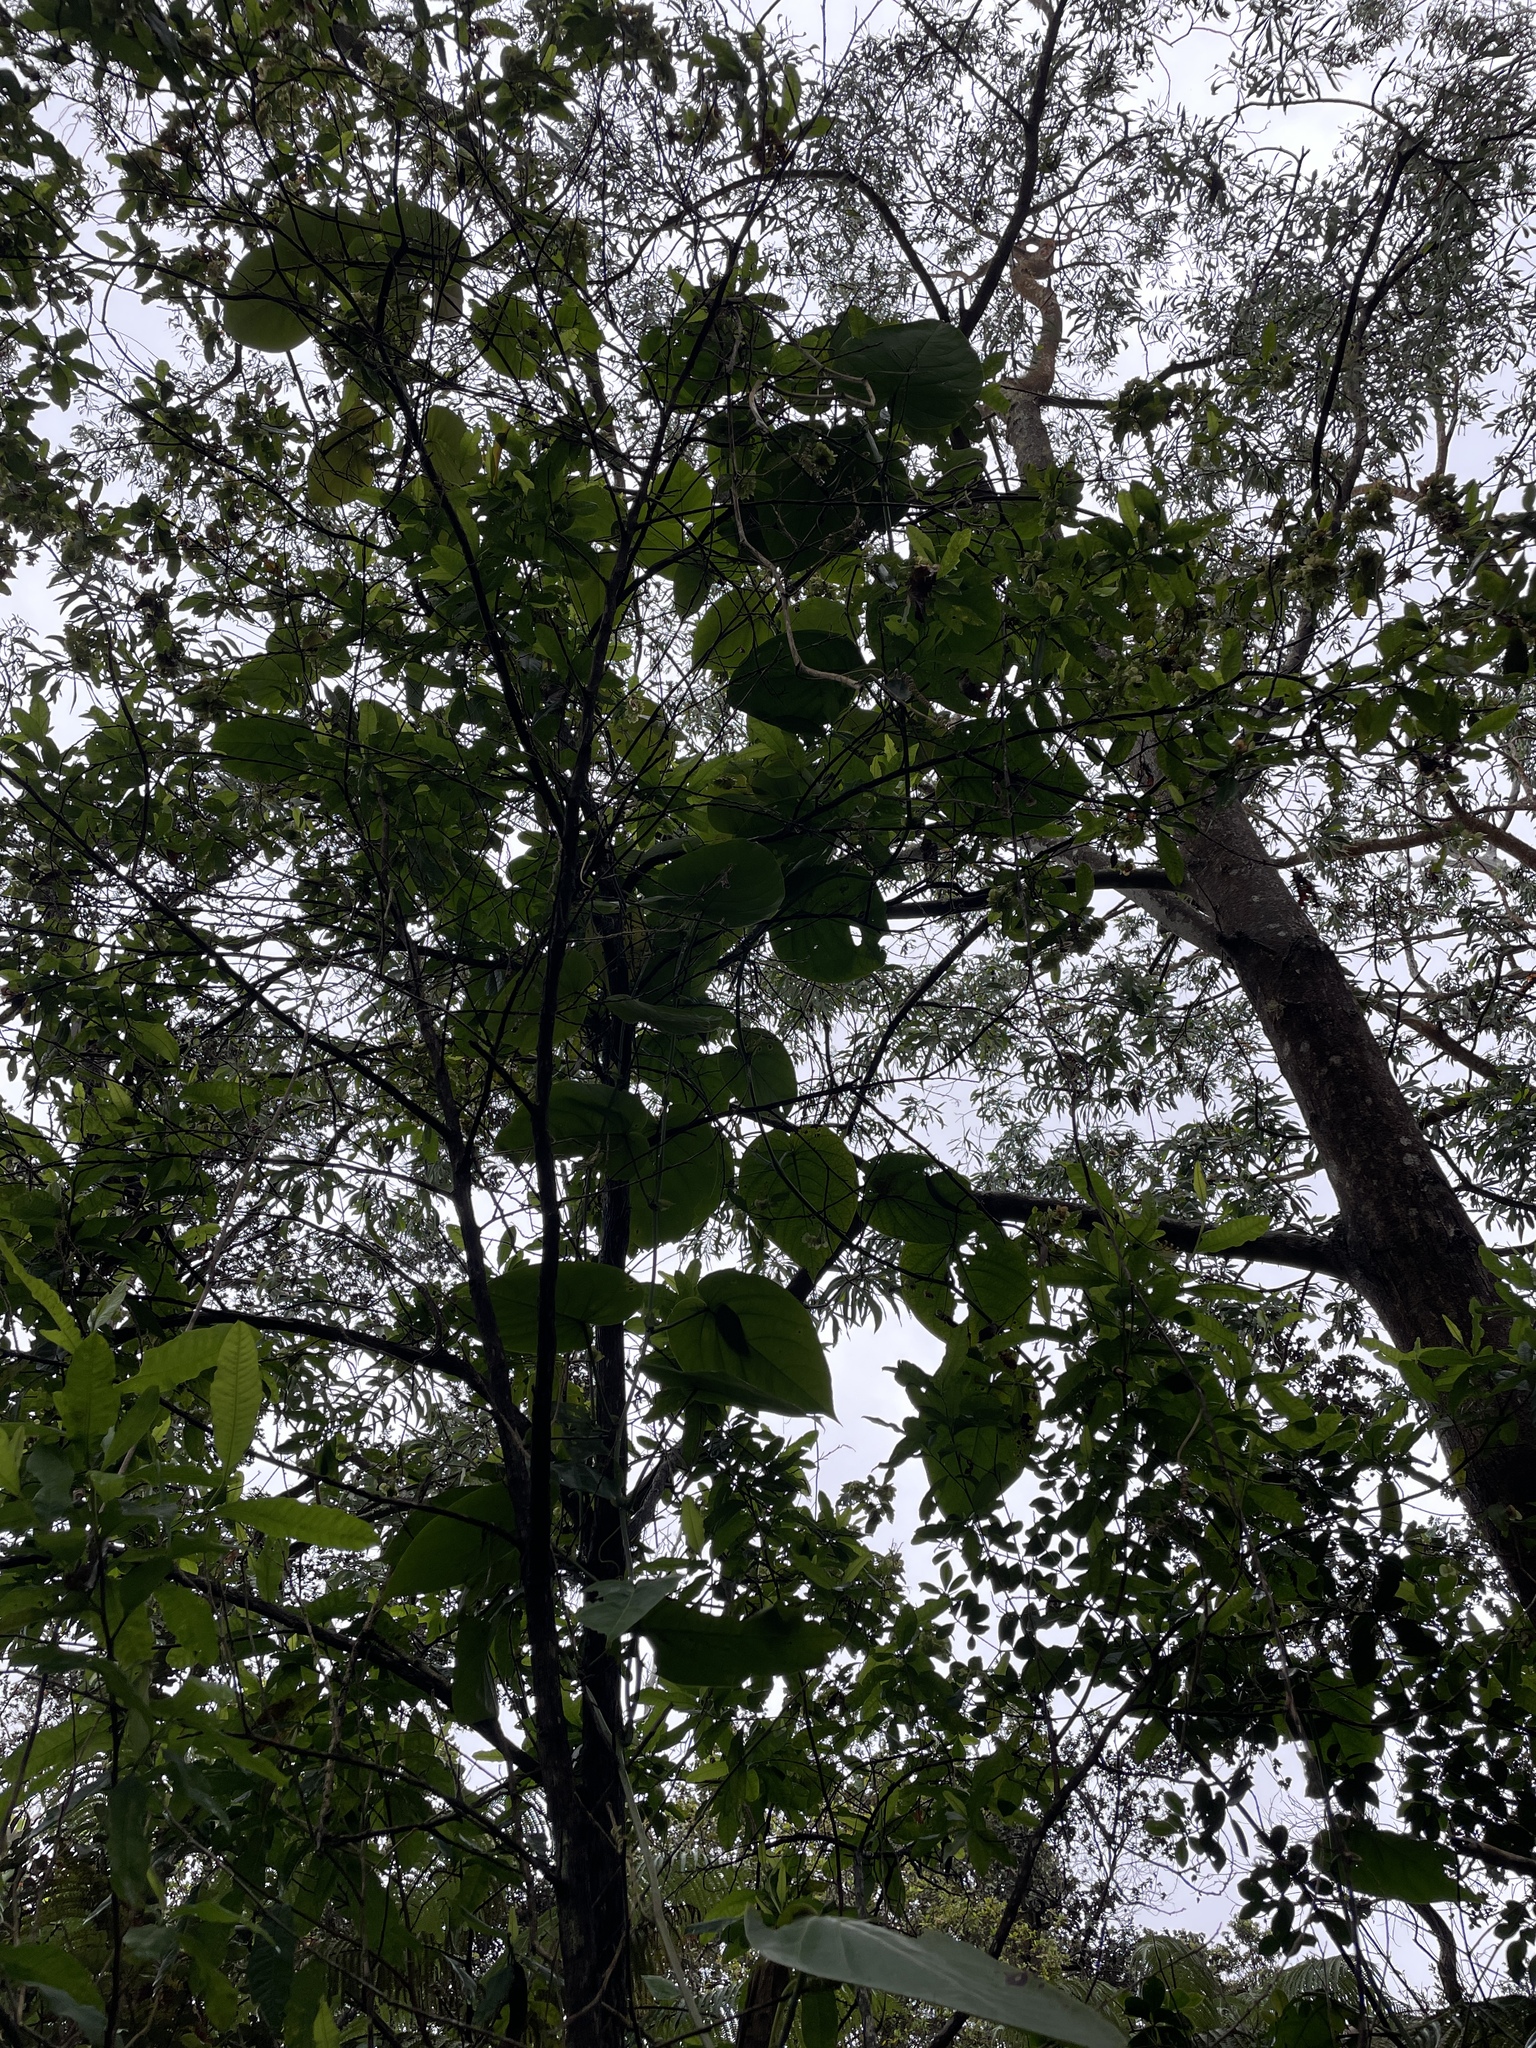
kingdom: Plantae
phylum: Tracheophyta
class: Magnoliopsida
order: Malpighiales
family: Passifloraceae
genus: Passiflora
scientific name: Passiflora ligularis
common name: Sweet granadilla
